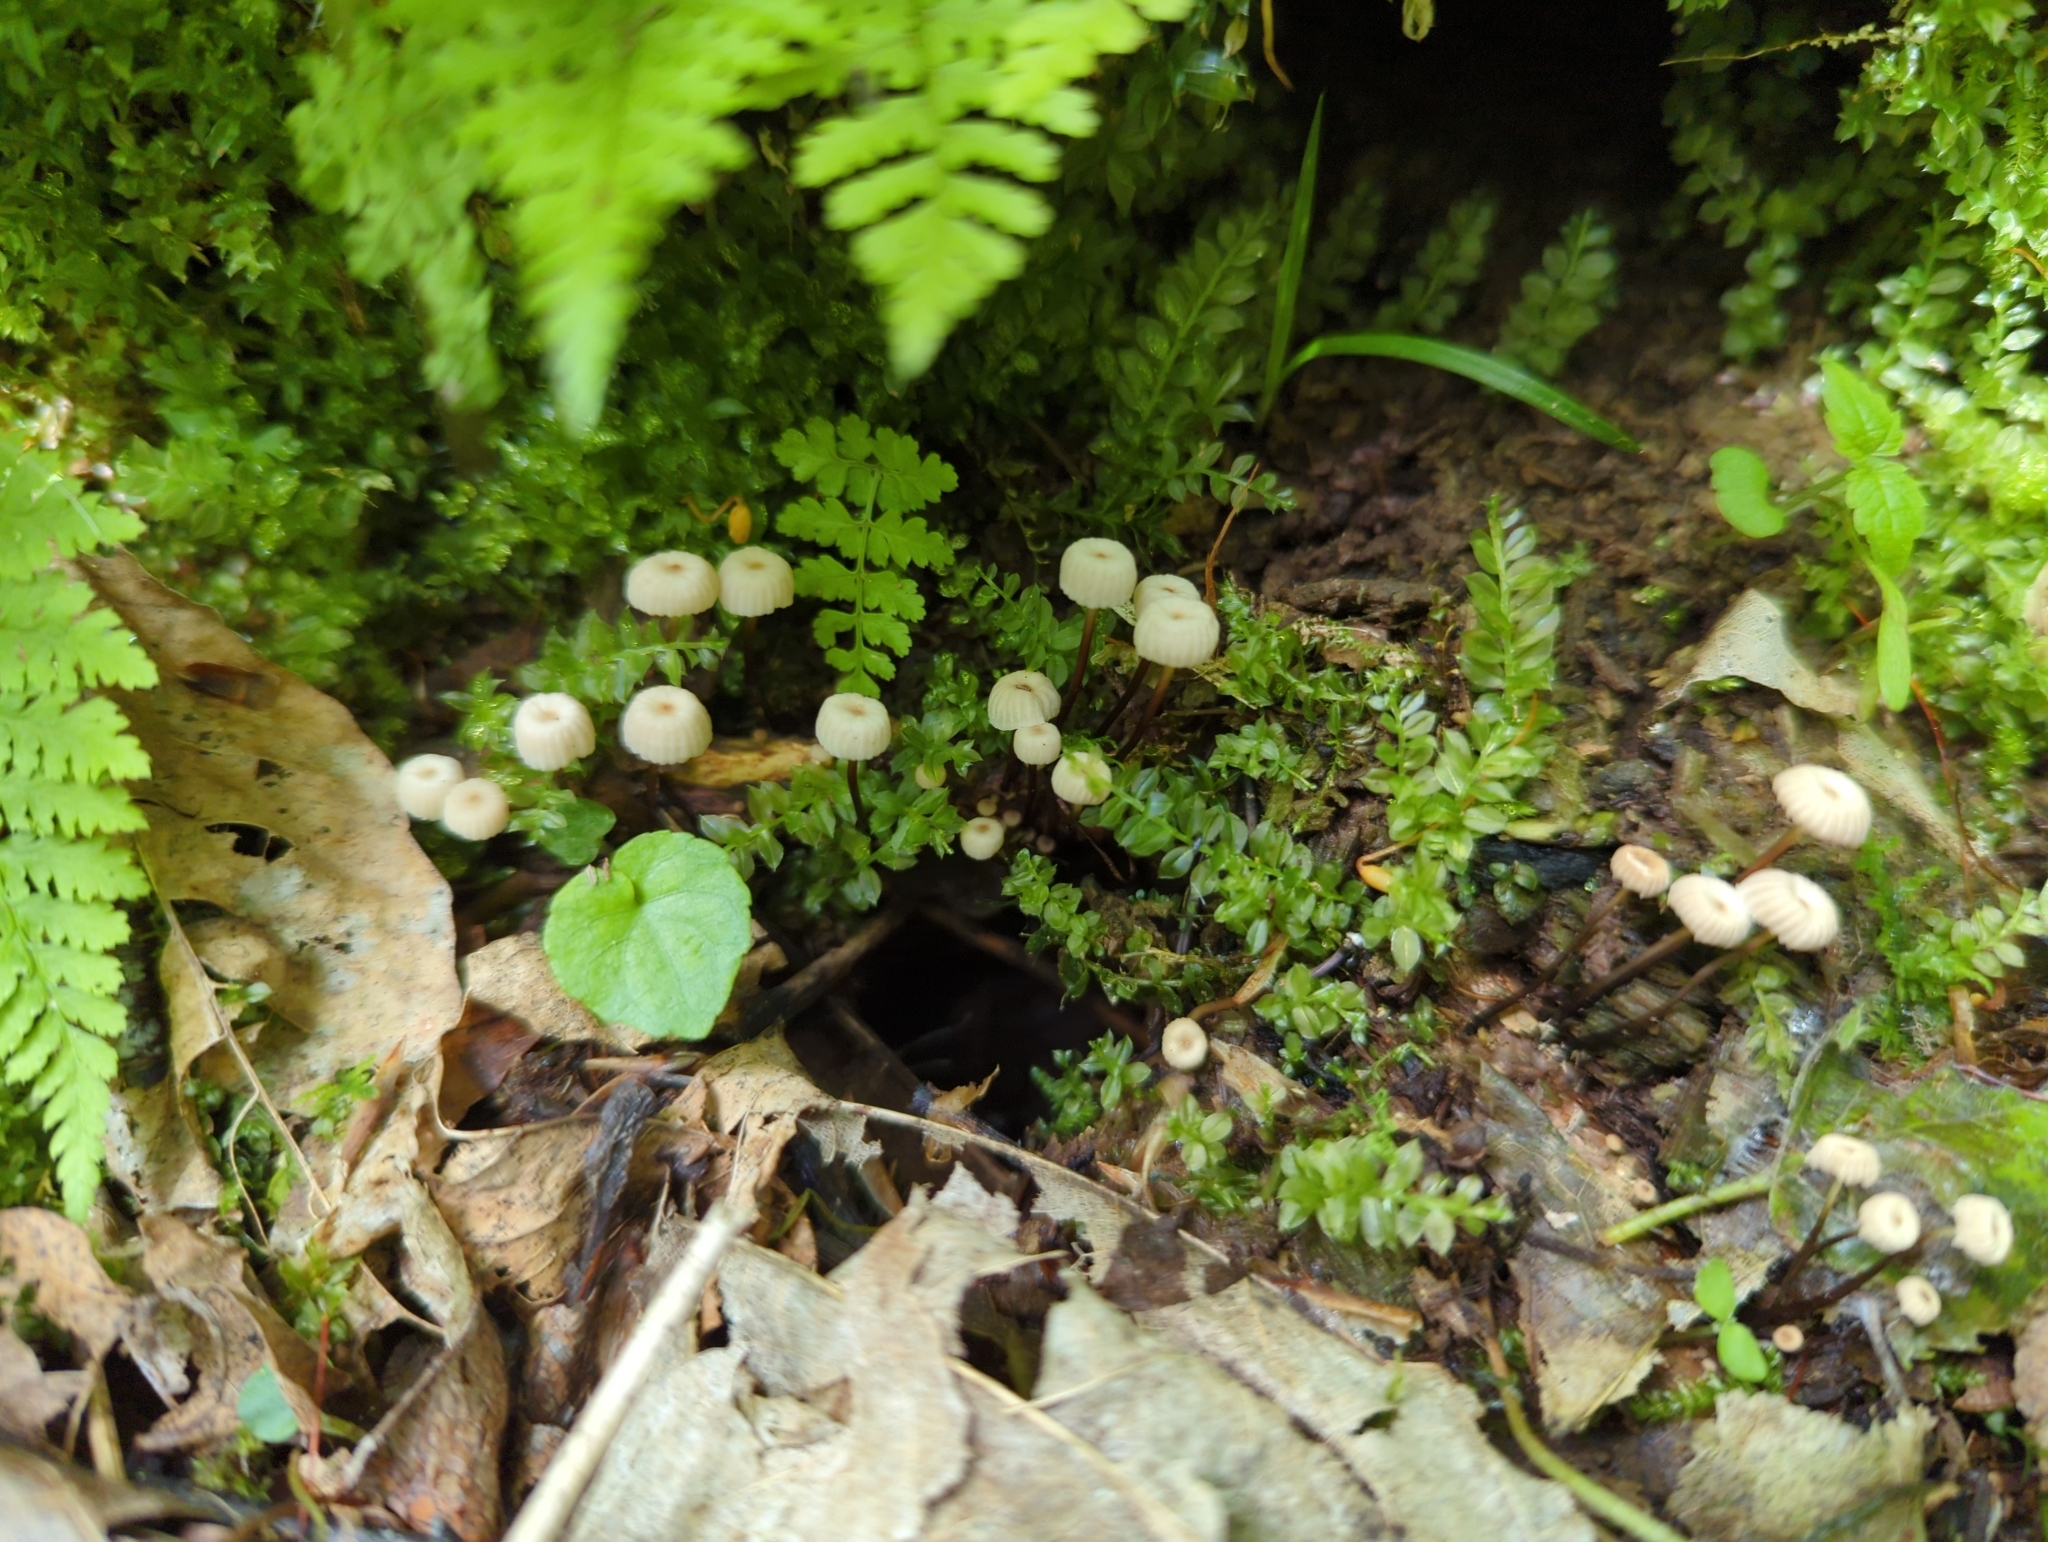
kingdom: Fungi
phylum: Basidiomycota
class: Agaricomycetes
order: Agaricales
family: Marasmiaceae
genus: Marasmius
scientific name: Marasmius rotula
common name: Collared parachute
